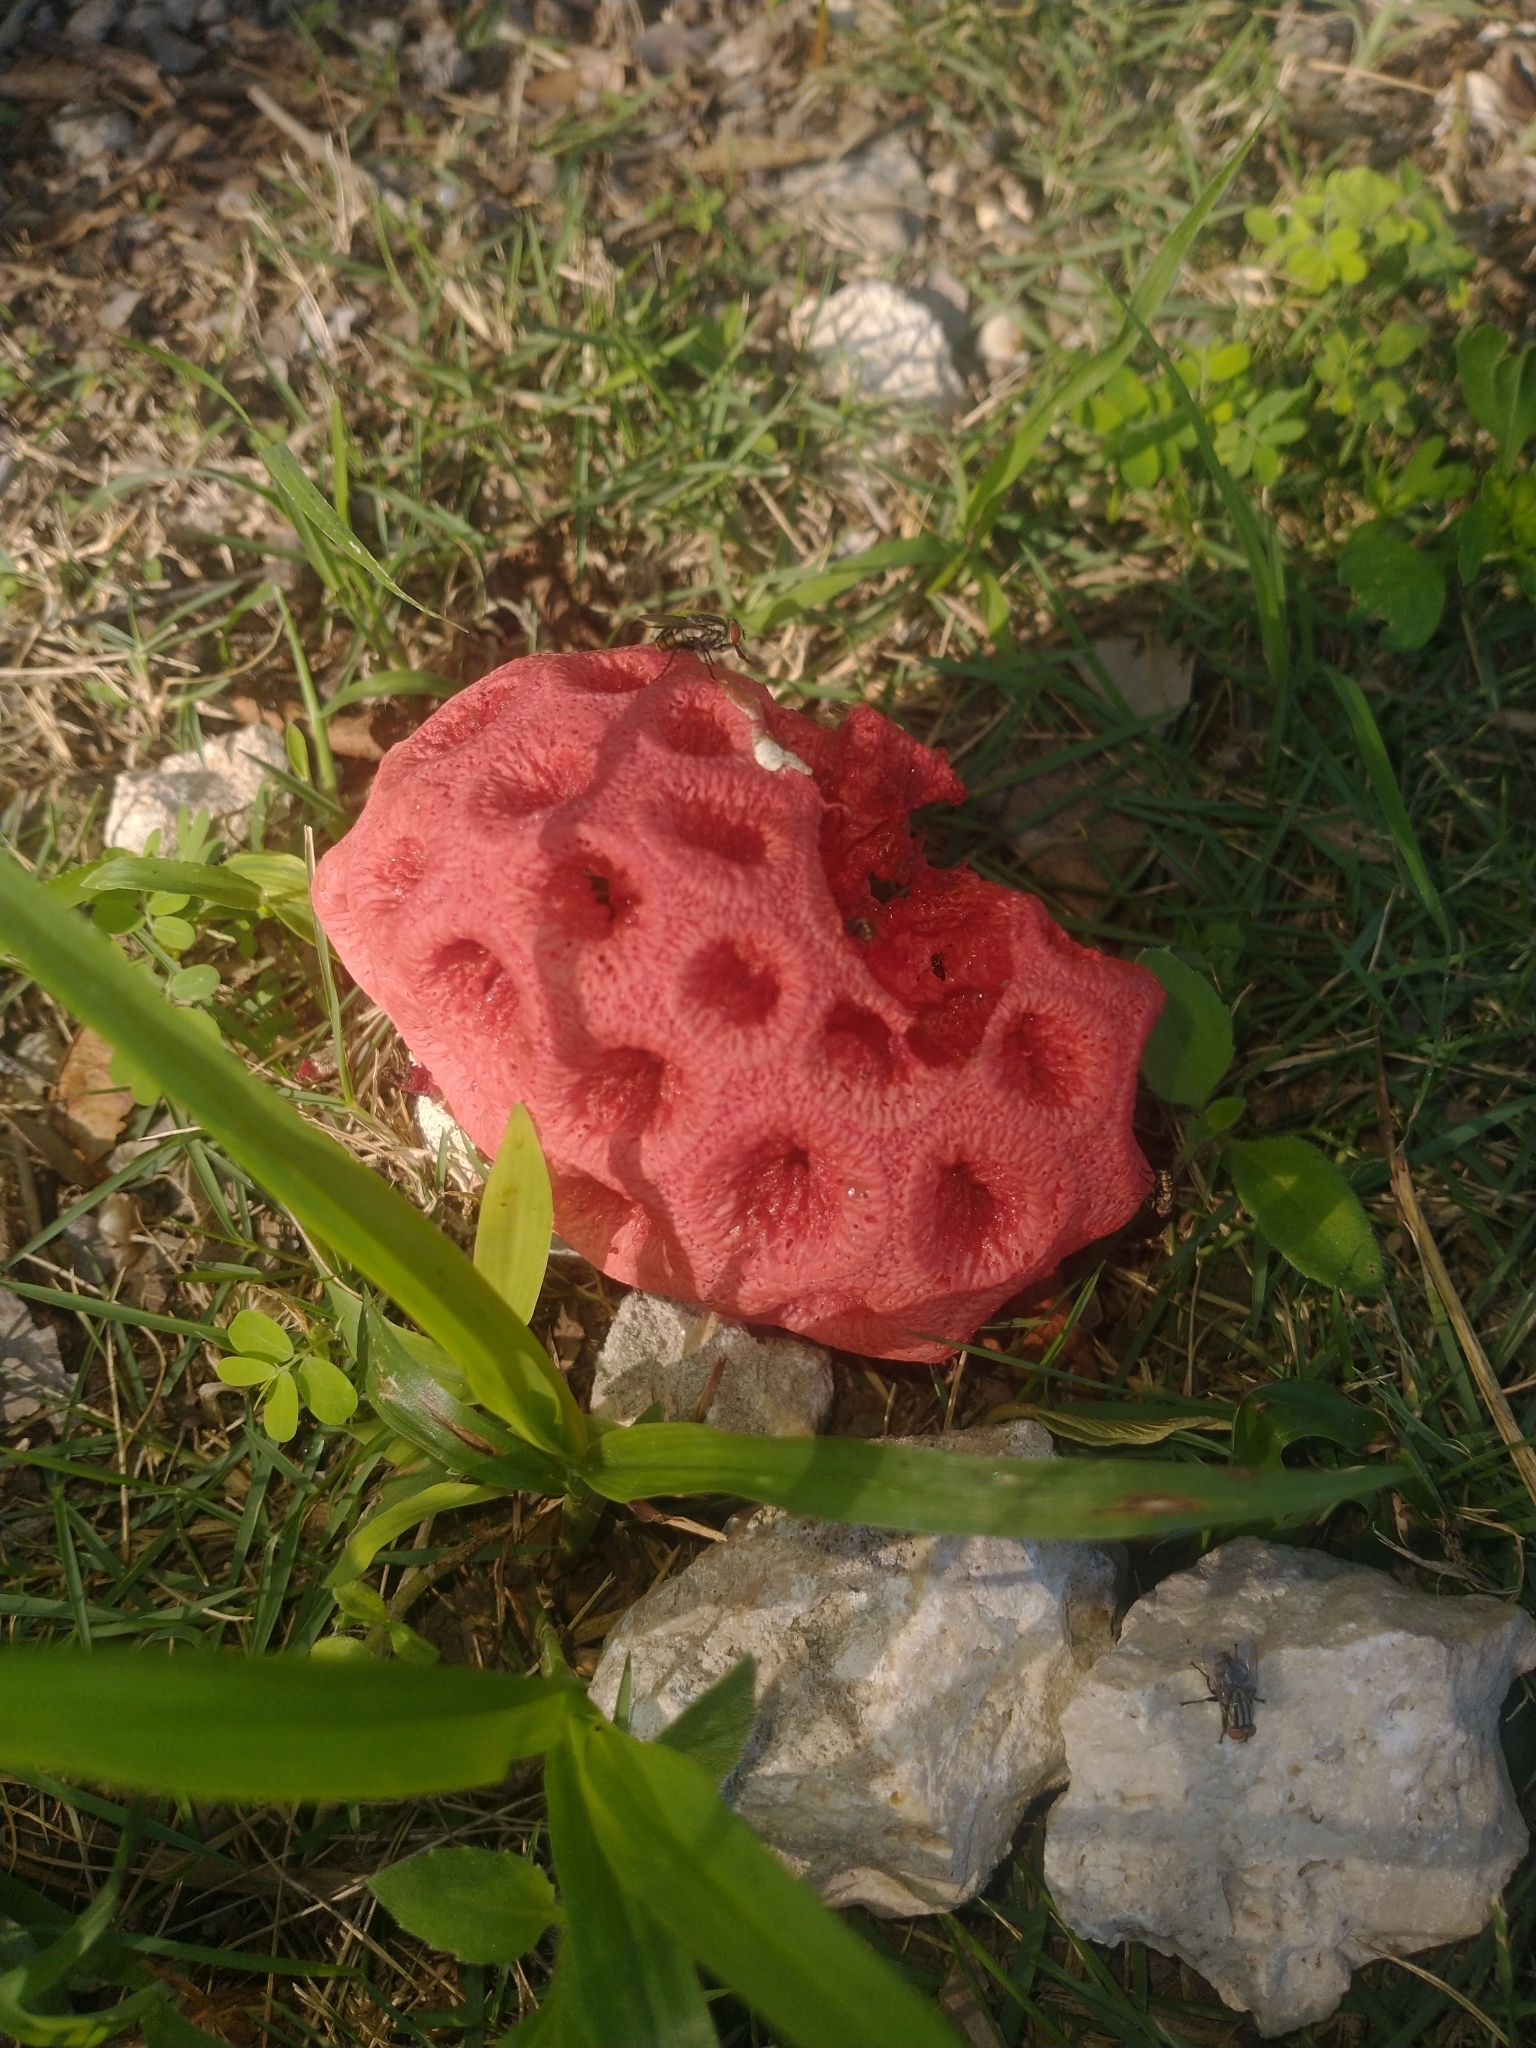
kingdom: Fungi
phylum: Basidiomycota
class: Agaricomycetes
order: Phallales
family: Phallaceae
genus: Clathrus
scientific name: Clathrus crispatus
